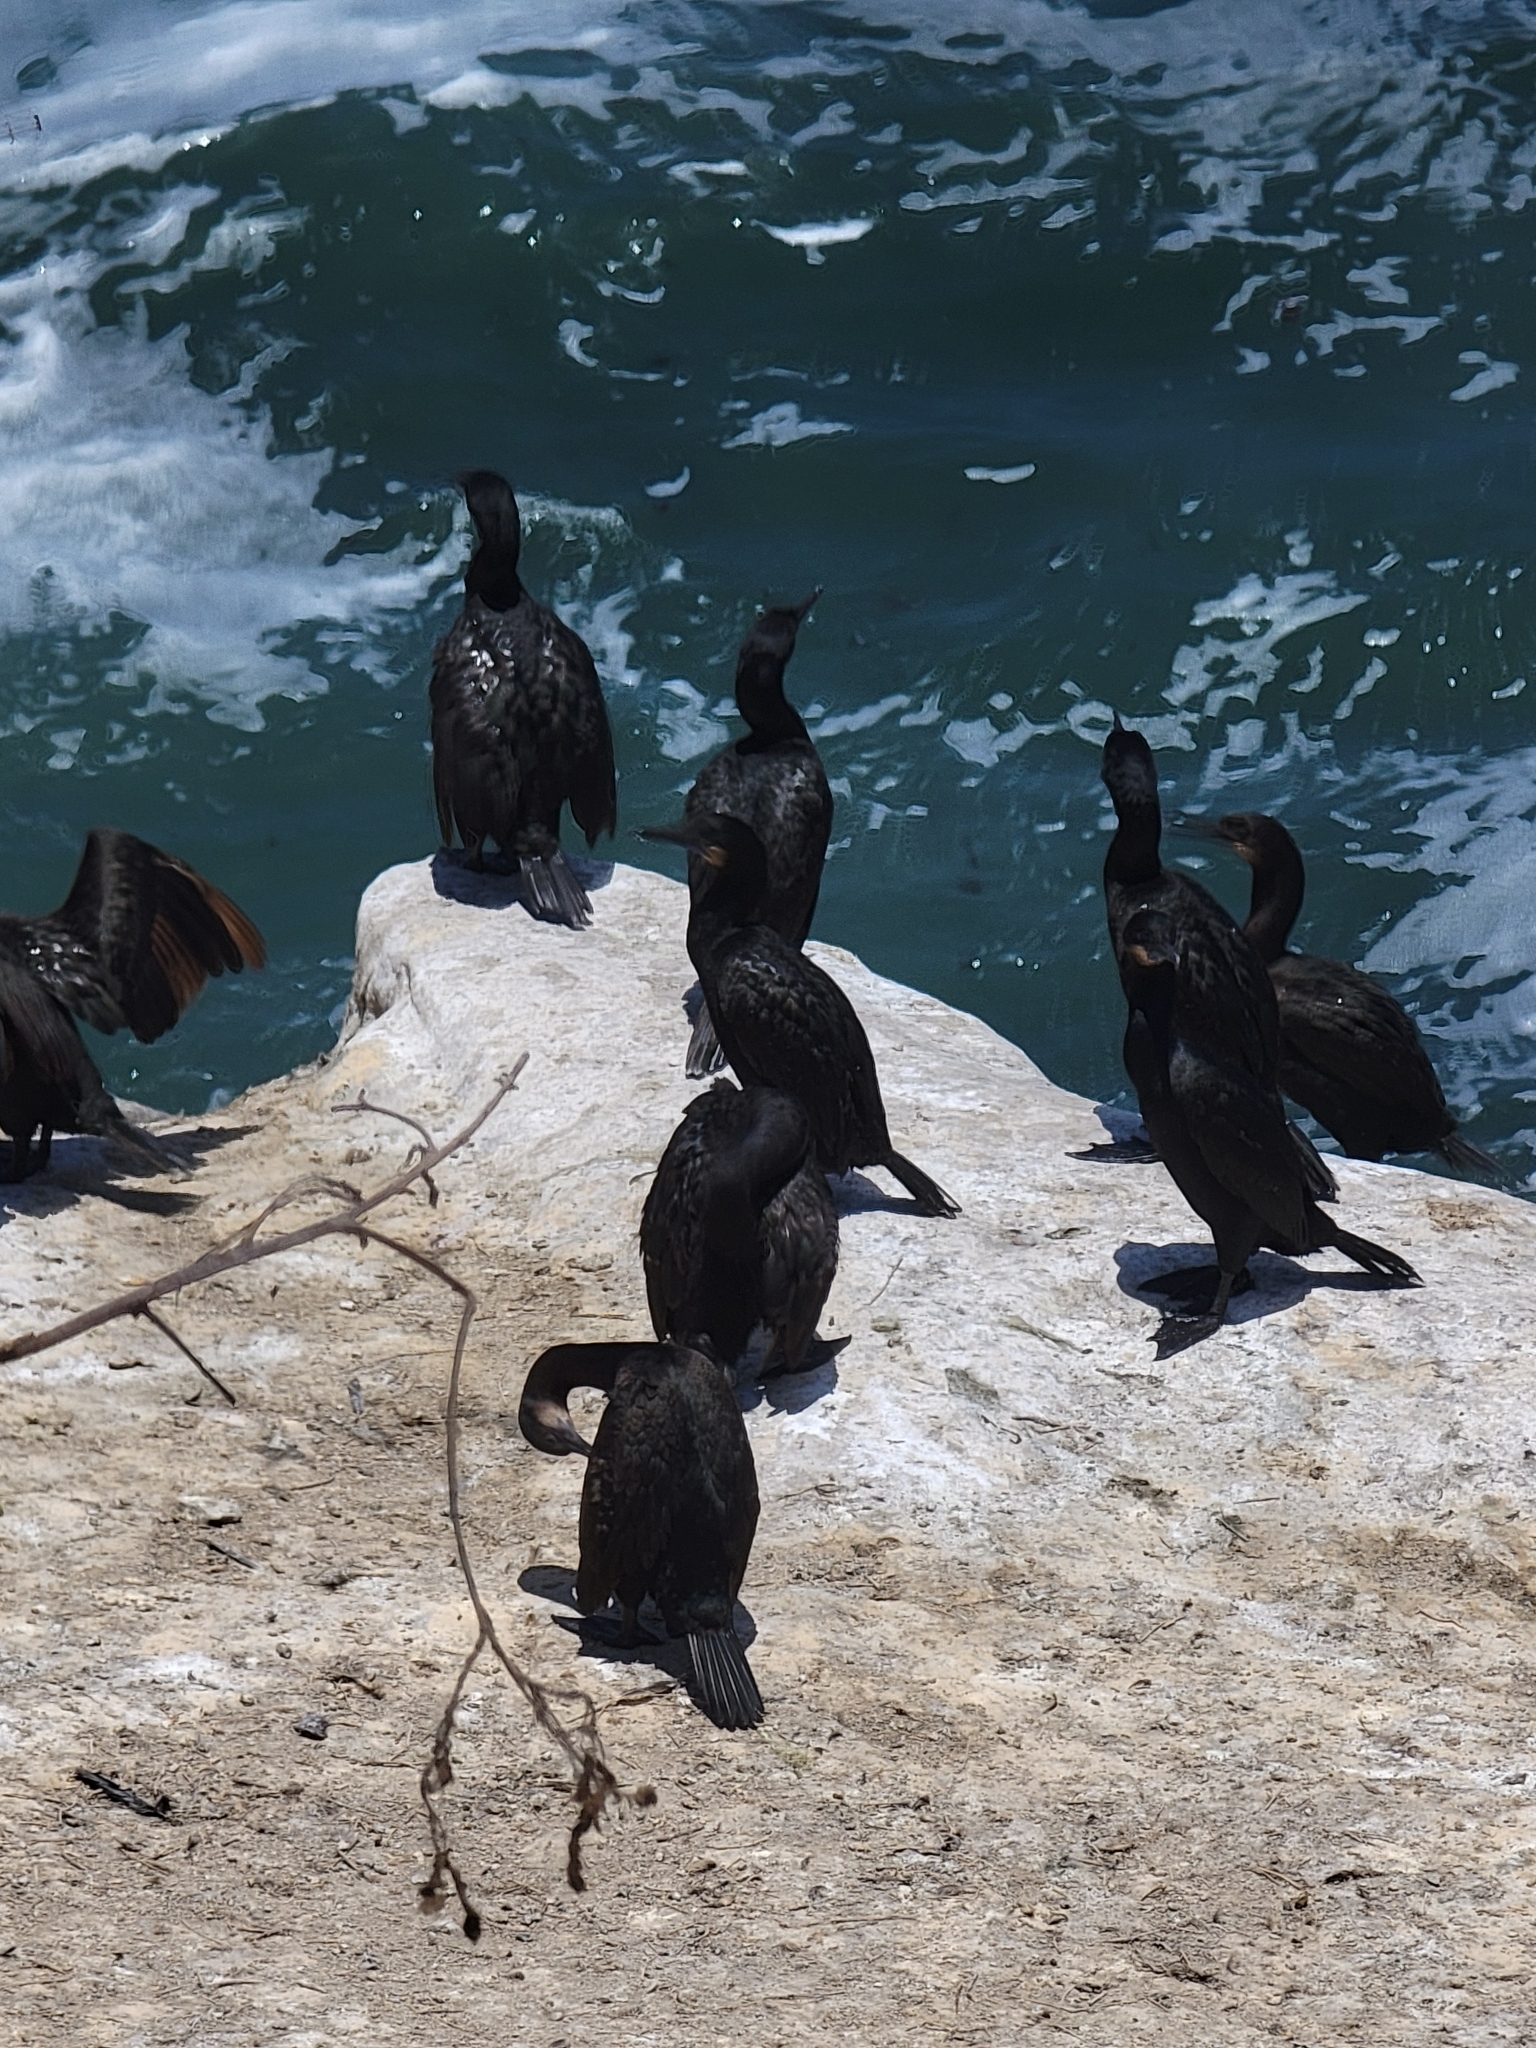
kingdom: Animalia
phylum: Chordata
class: Aves
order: Suliformes
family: Phalacrocoracidae
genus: Urile
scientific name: Urile penicillatus
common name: Brandt's cormorant
